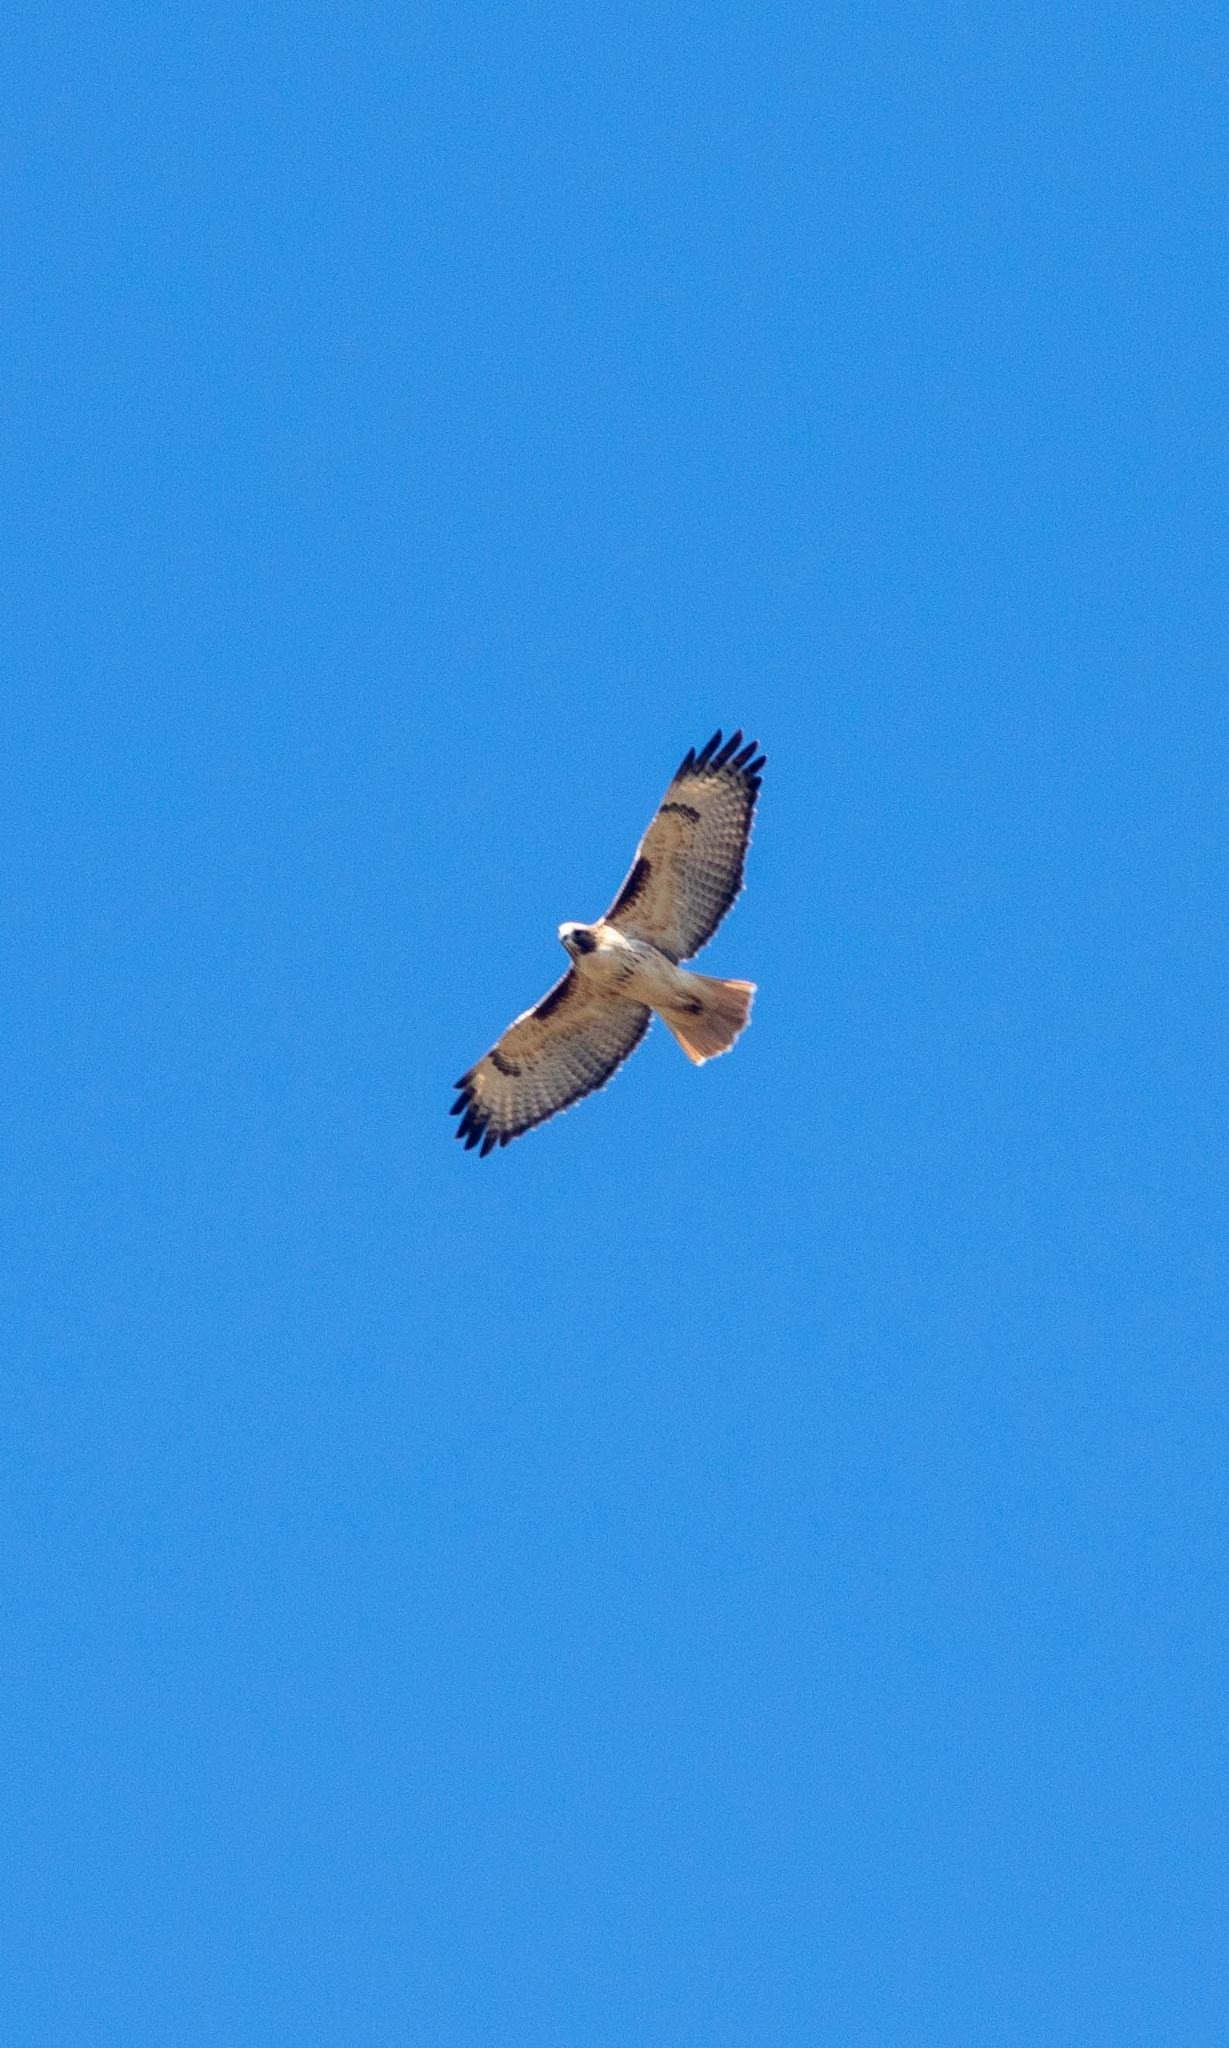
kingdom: Animalia
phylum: Chordata
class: Aves
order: Accipitriformes
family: Accipitridae
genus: Buteo
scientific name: Buteo jamaicensis
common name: Red-tailed hawk
